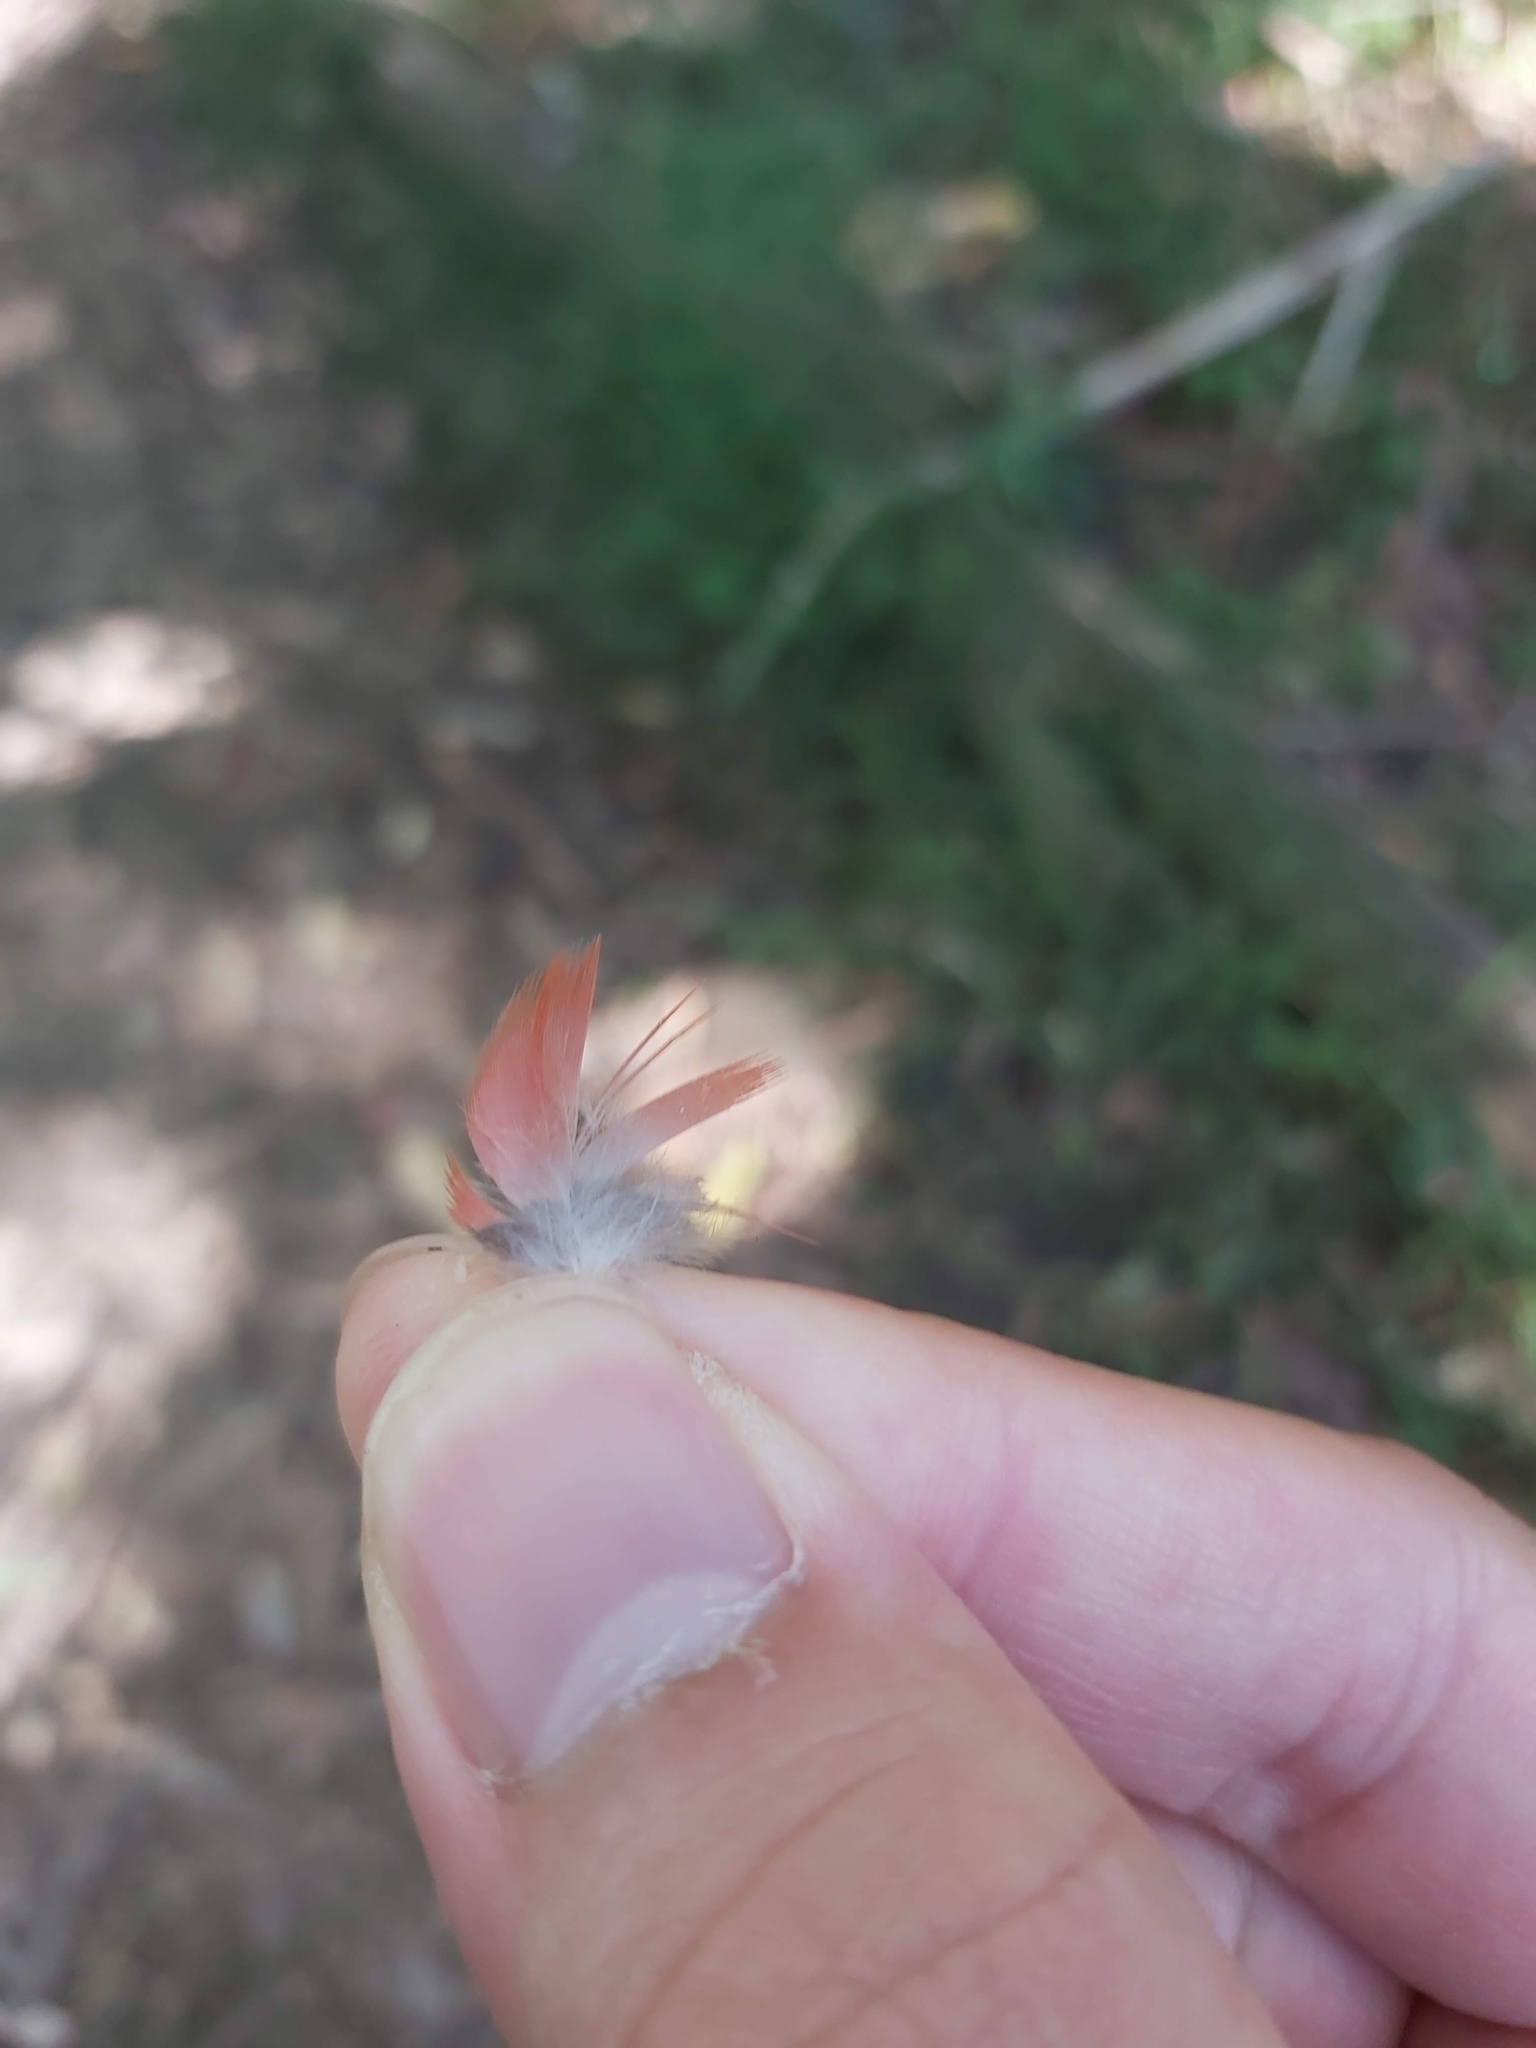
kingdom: Animalia
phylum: Chordata
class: Aves
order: Psittaciformes
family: Psittacidae
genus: Trichoglossus
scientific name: Trichoglossus haematodus
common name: Coconut lorikeet
